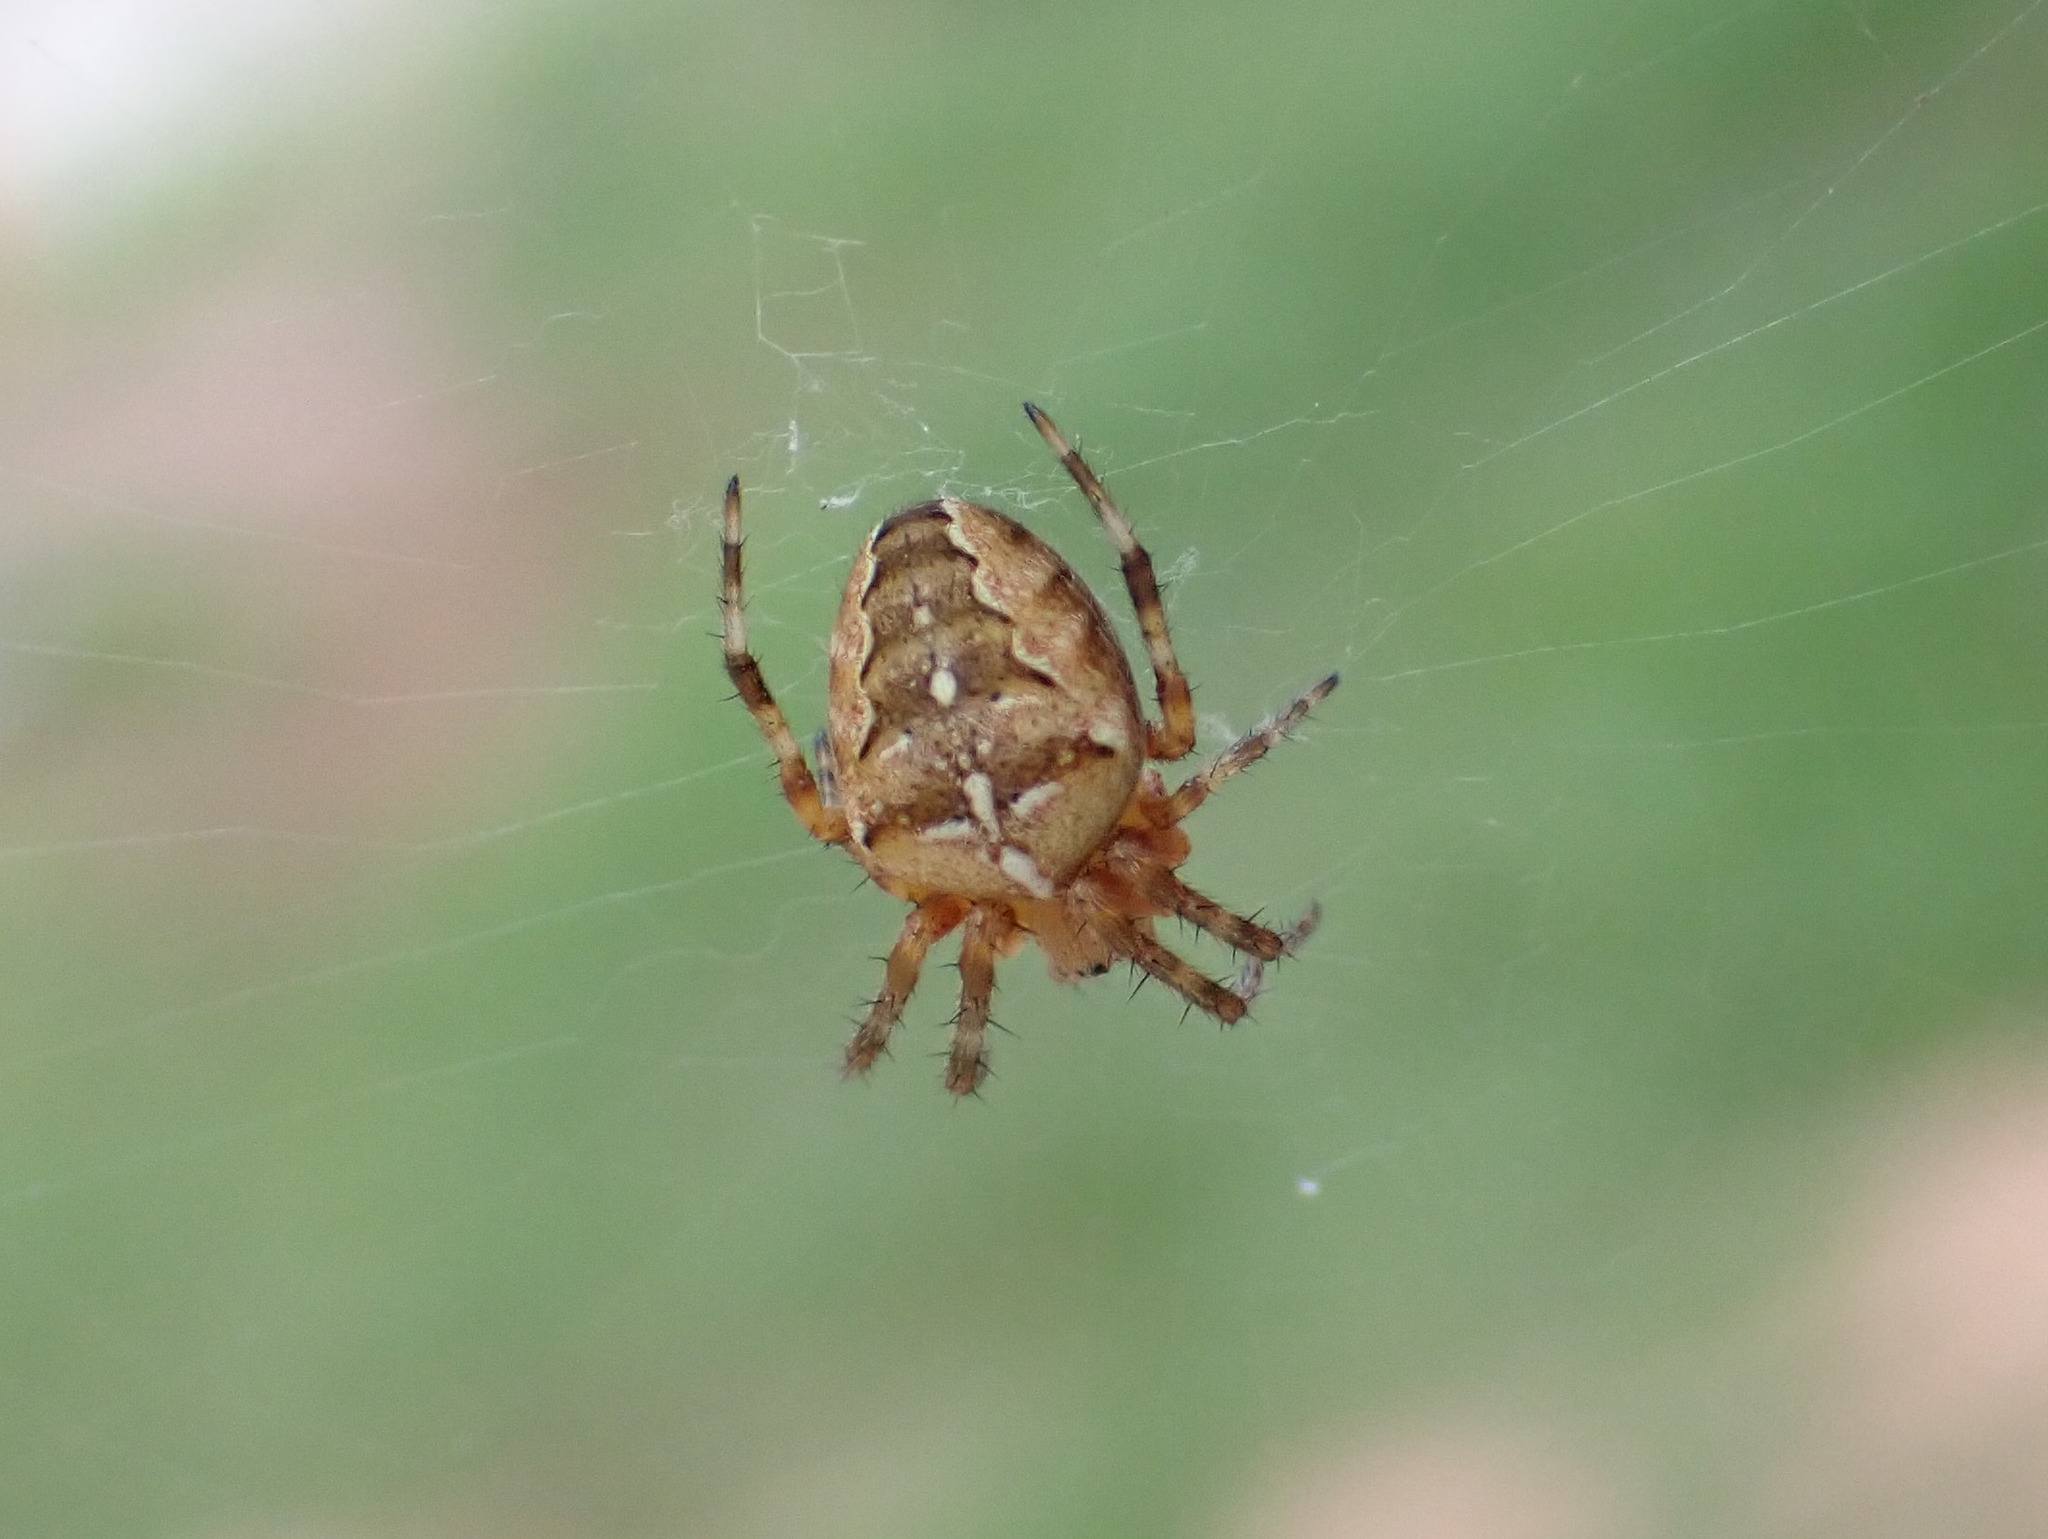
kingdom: Animalia
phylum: Arthropoda
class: Arachnida
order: Araneae
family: Araneidae
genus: Araneus
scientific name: Araneus diadematus
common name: Cross orbweaver
